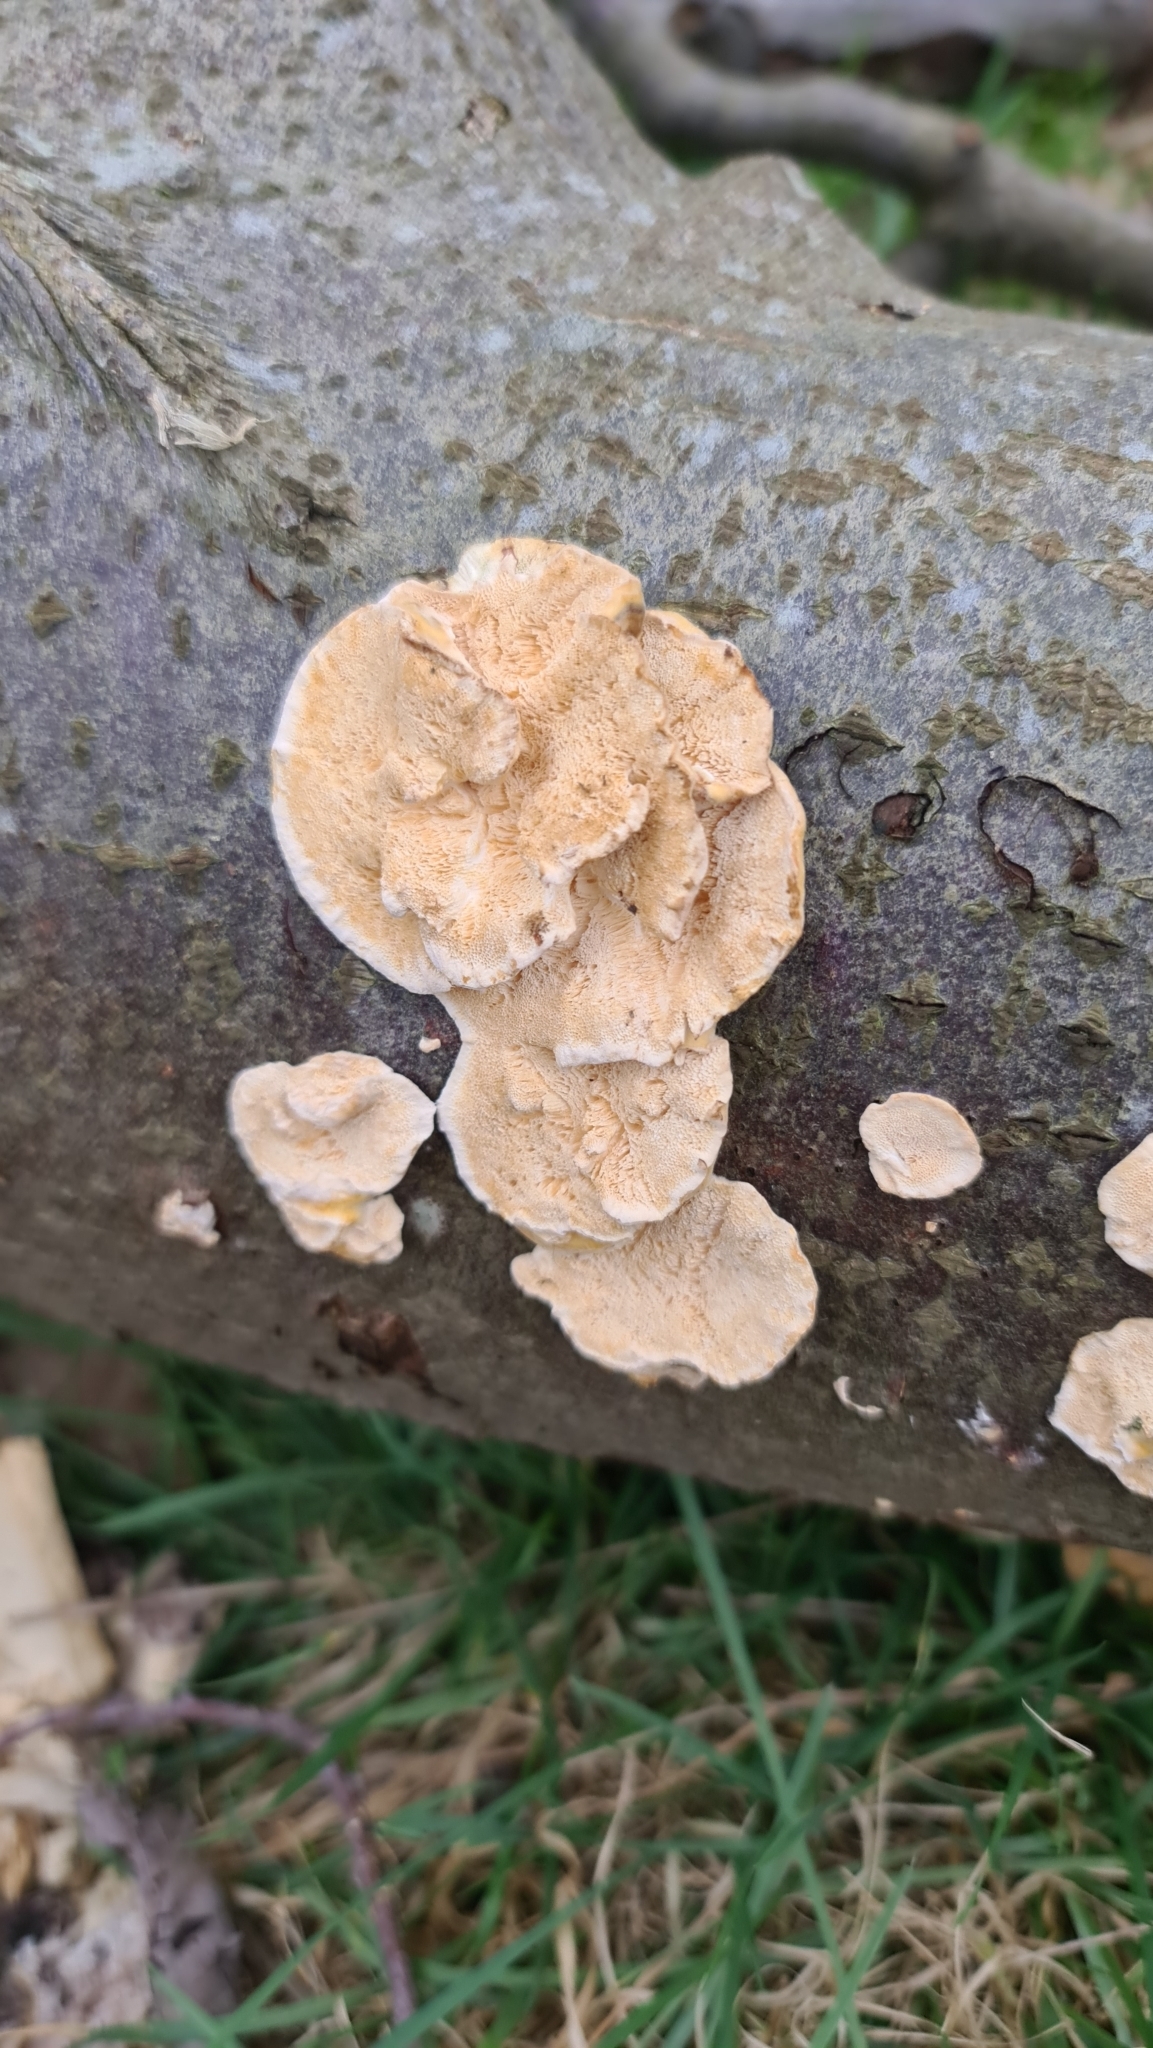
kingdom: Fungi
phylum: Basidiomycota
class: Agaricomycetes
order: Polyporales
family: Polyporaceae
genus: Trametes
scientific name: Trametes ochracea
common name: Ochre bracket
